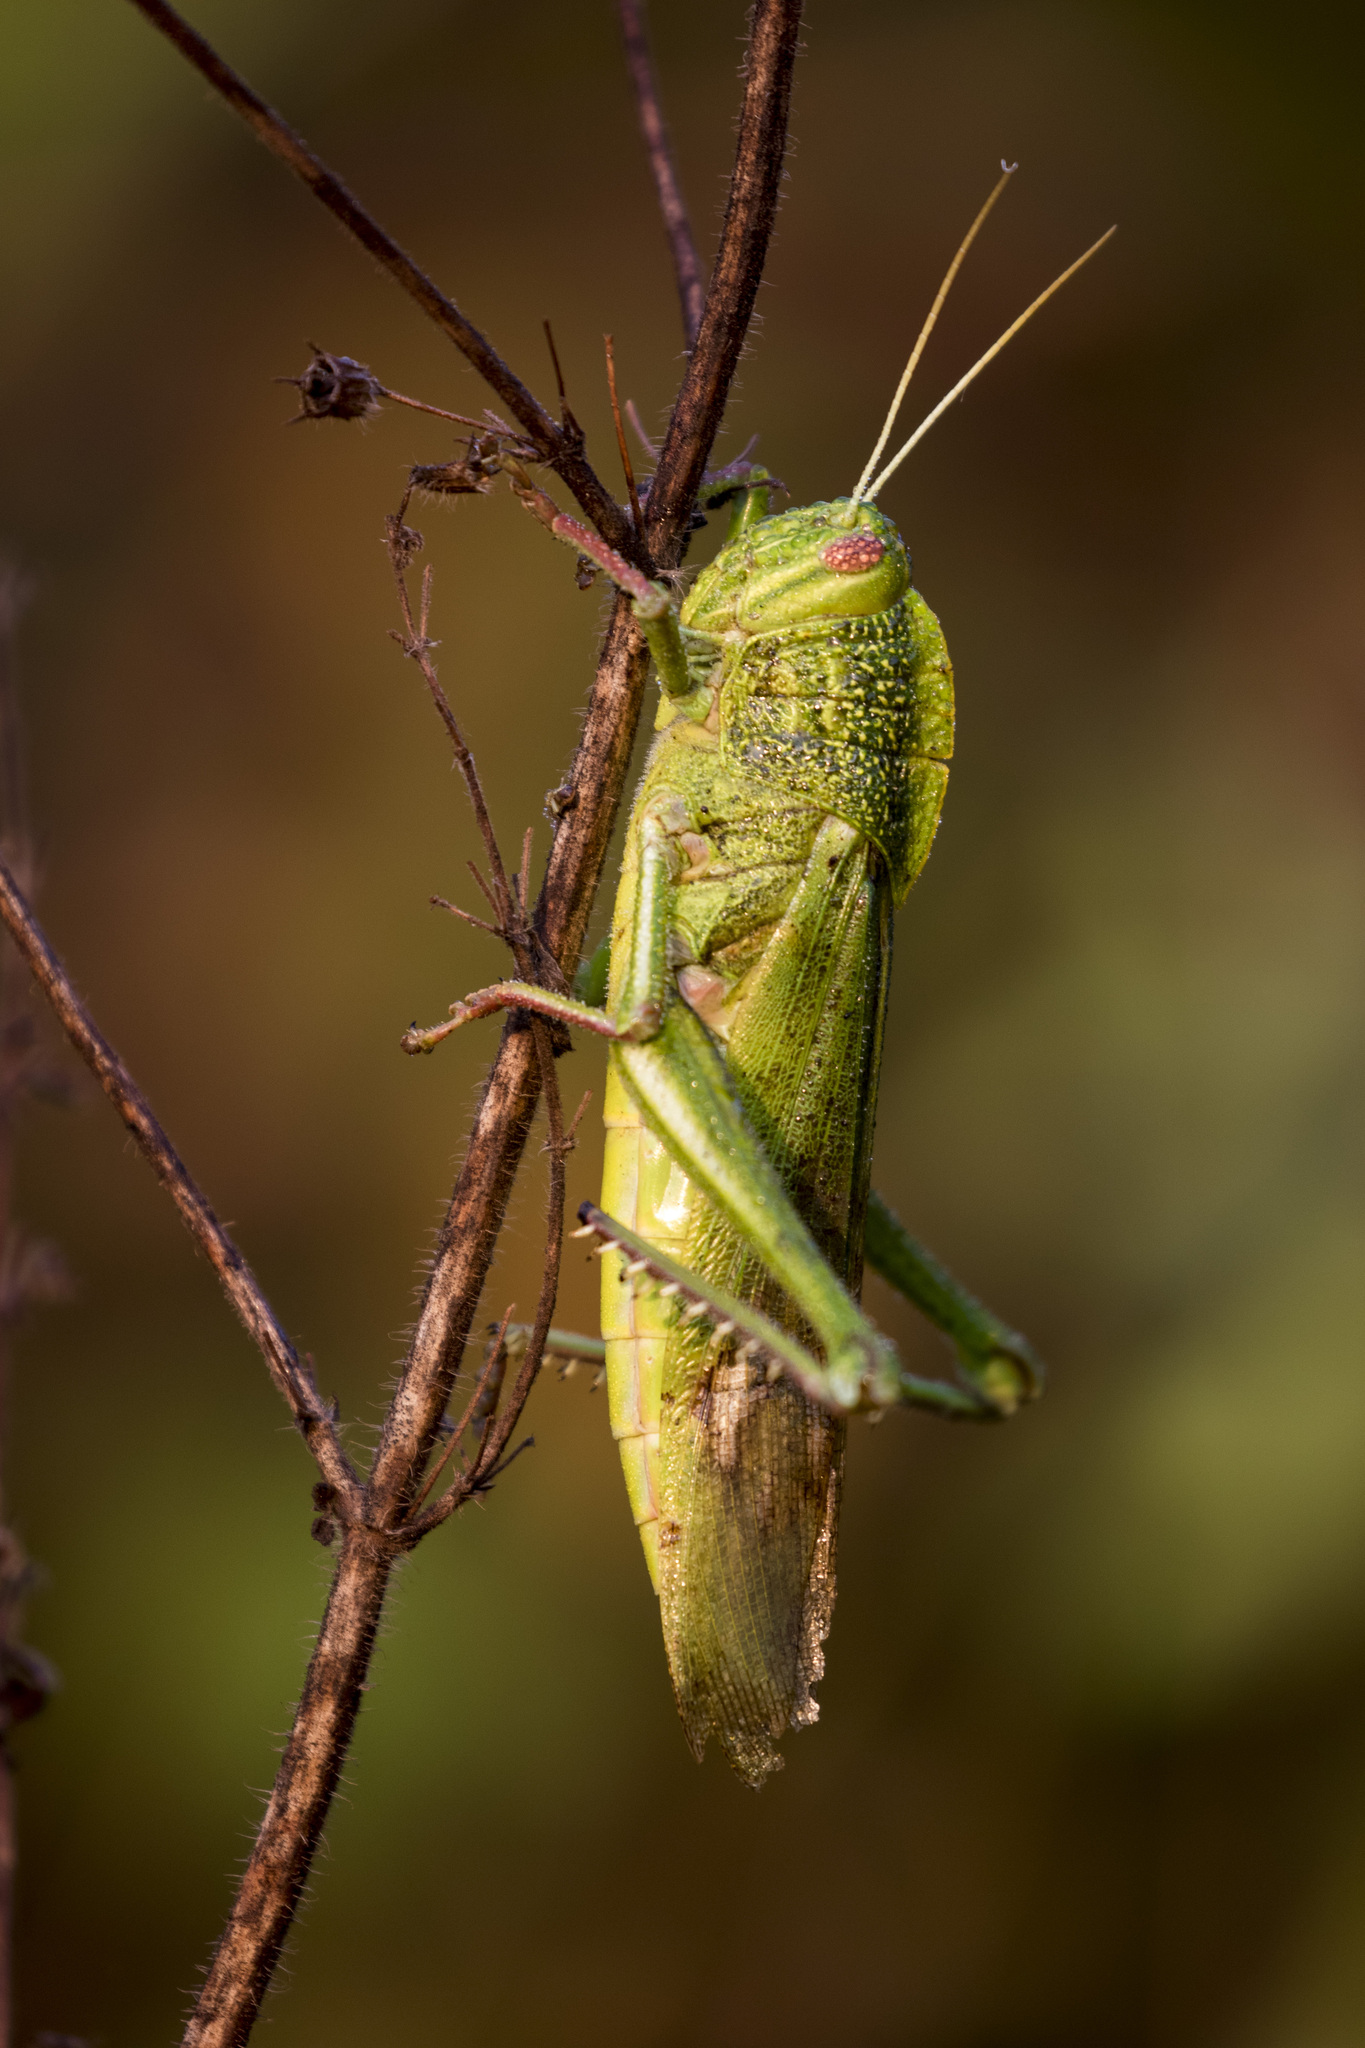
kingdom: Animalia
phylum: Arthropoda
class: Insecta
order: Orthoptera
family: Acrididae
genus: Chondracris
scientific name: Chondracris bengalensis
